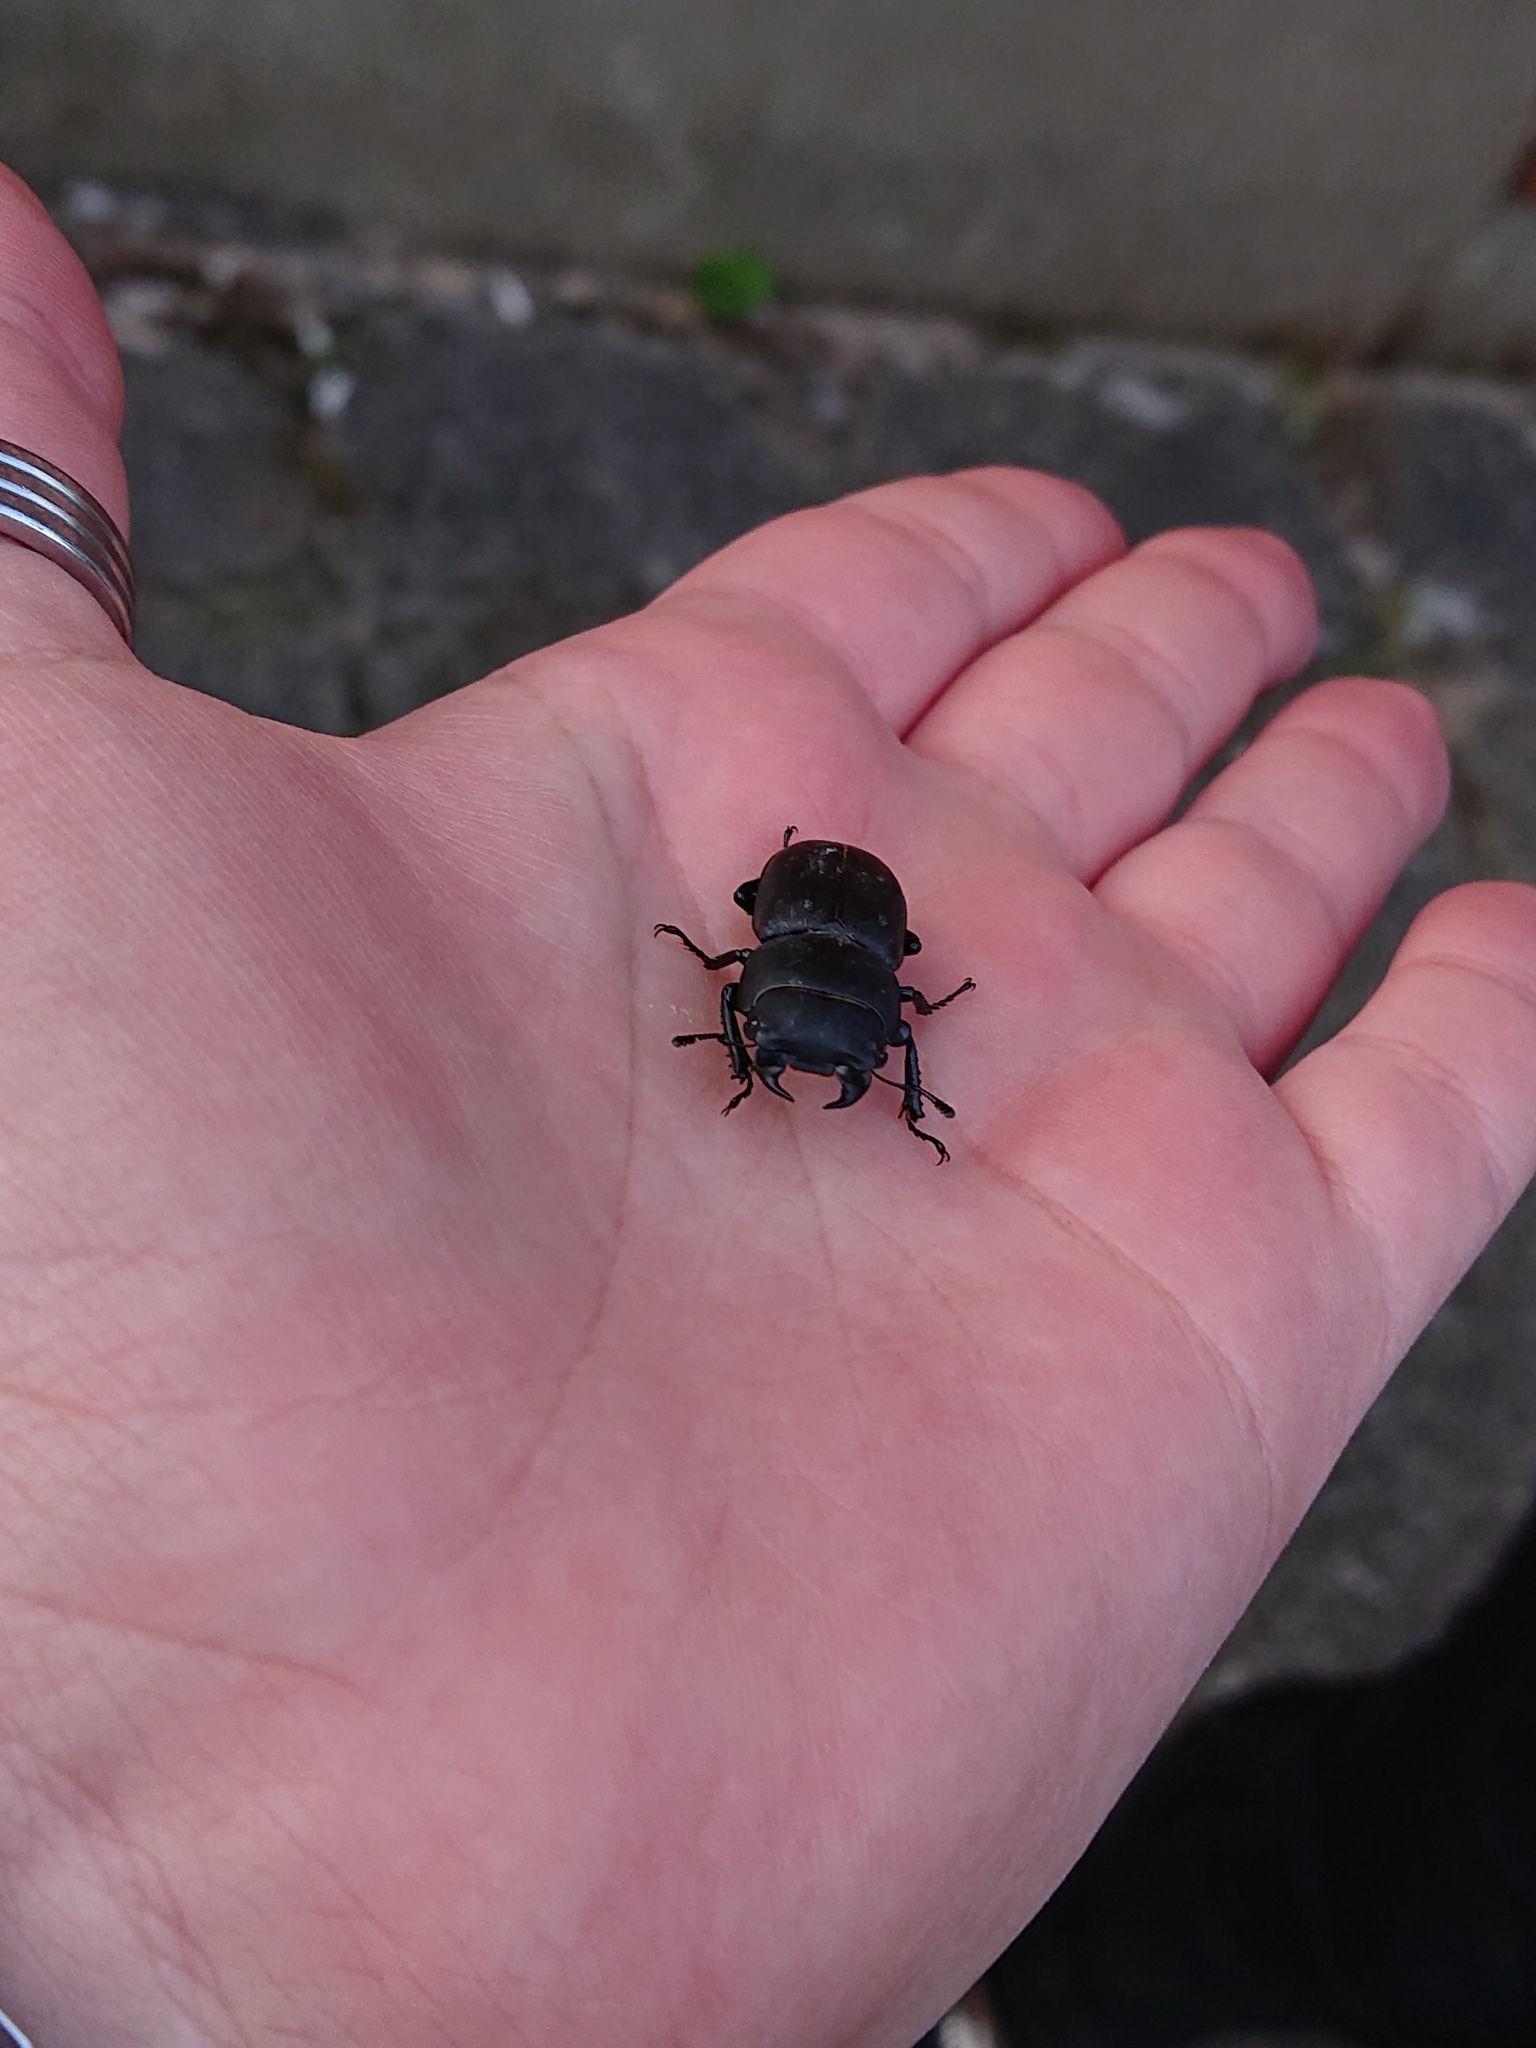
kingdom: Animalia
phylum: Arthropoda
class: Insecta
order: Coleoptera
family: Lucanidae
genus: Dorcus
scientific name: Dorcus parallelipipedus
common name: Lesser stag beetle
